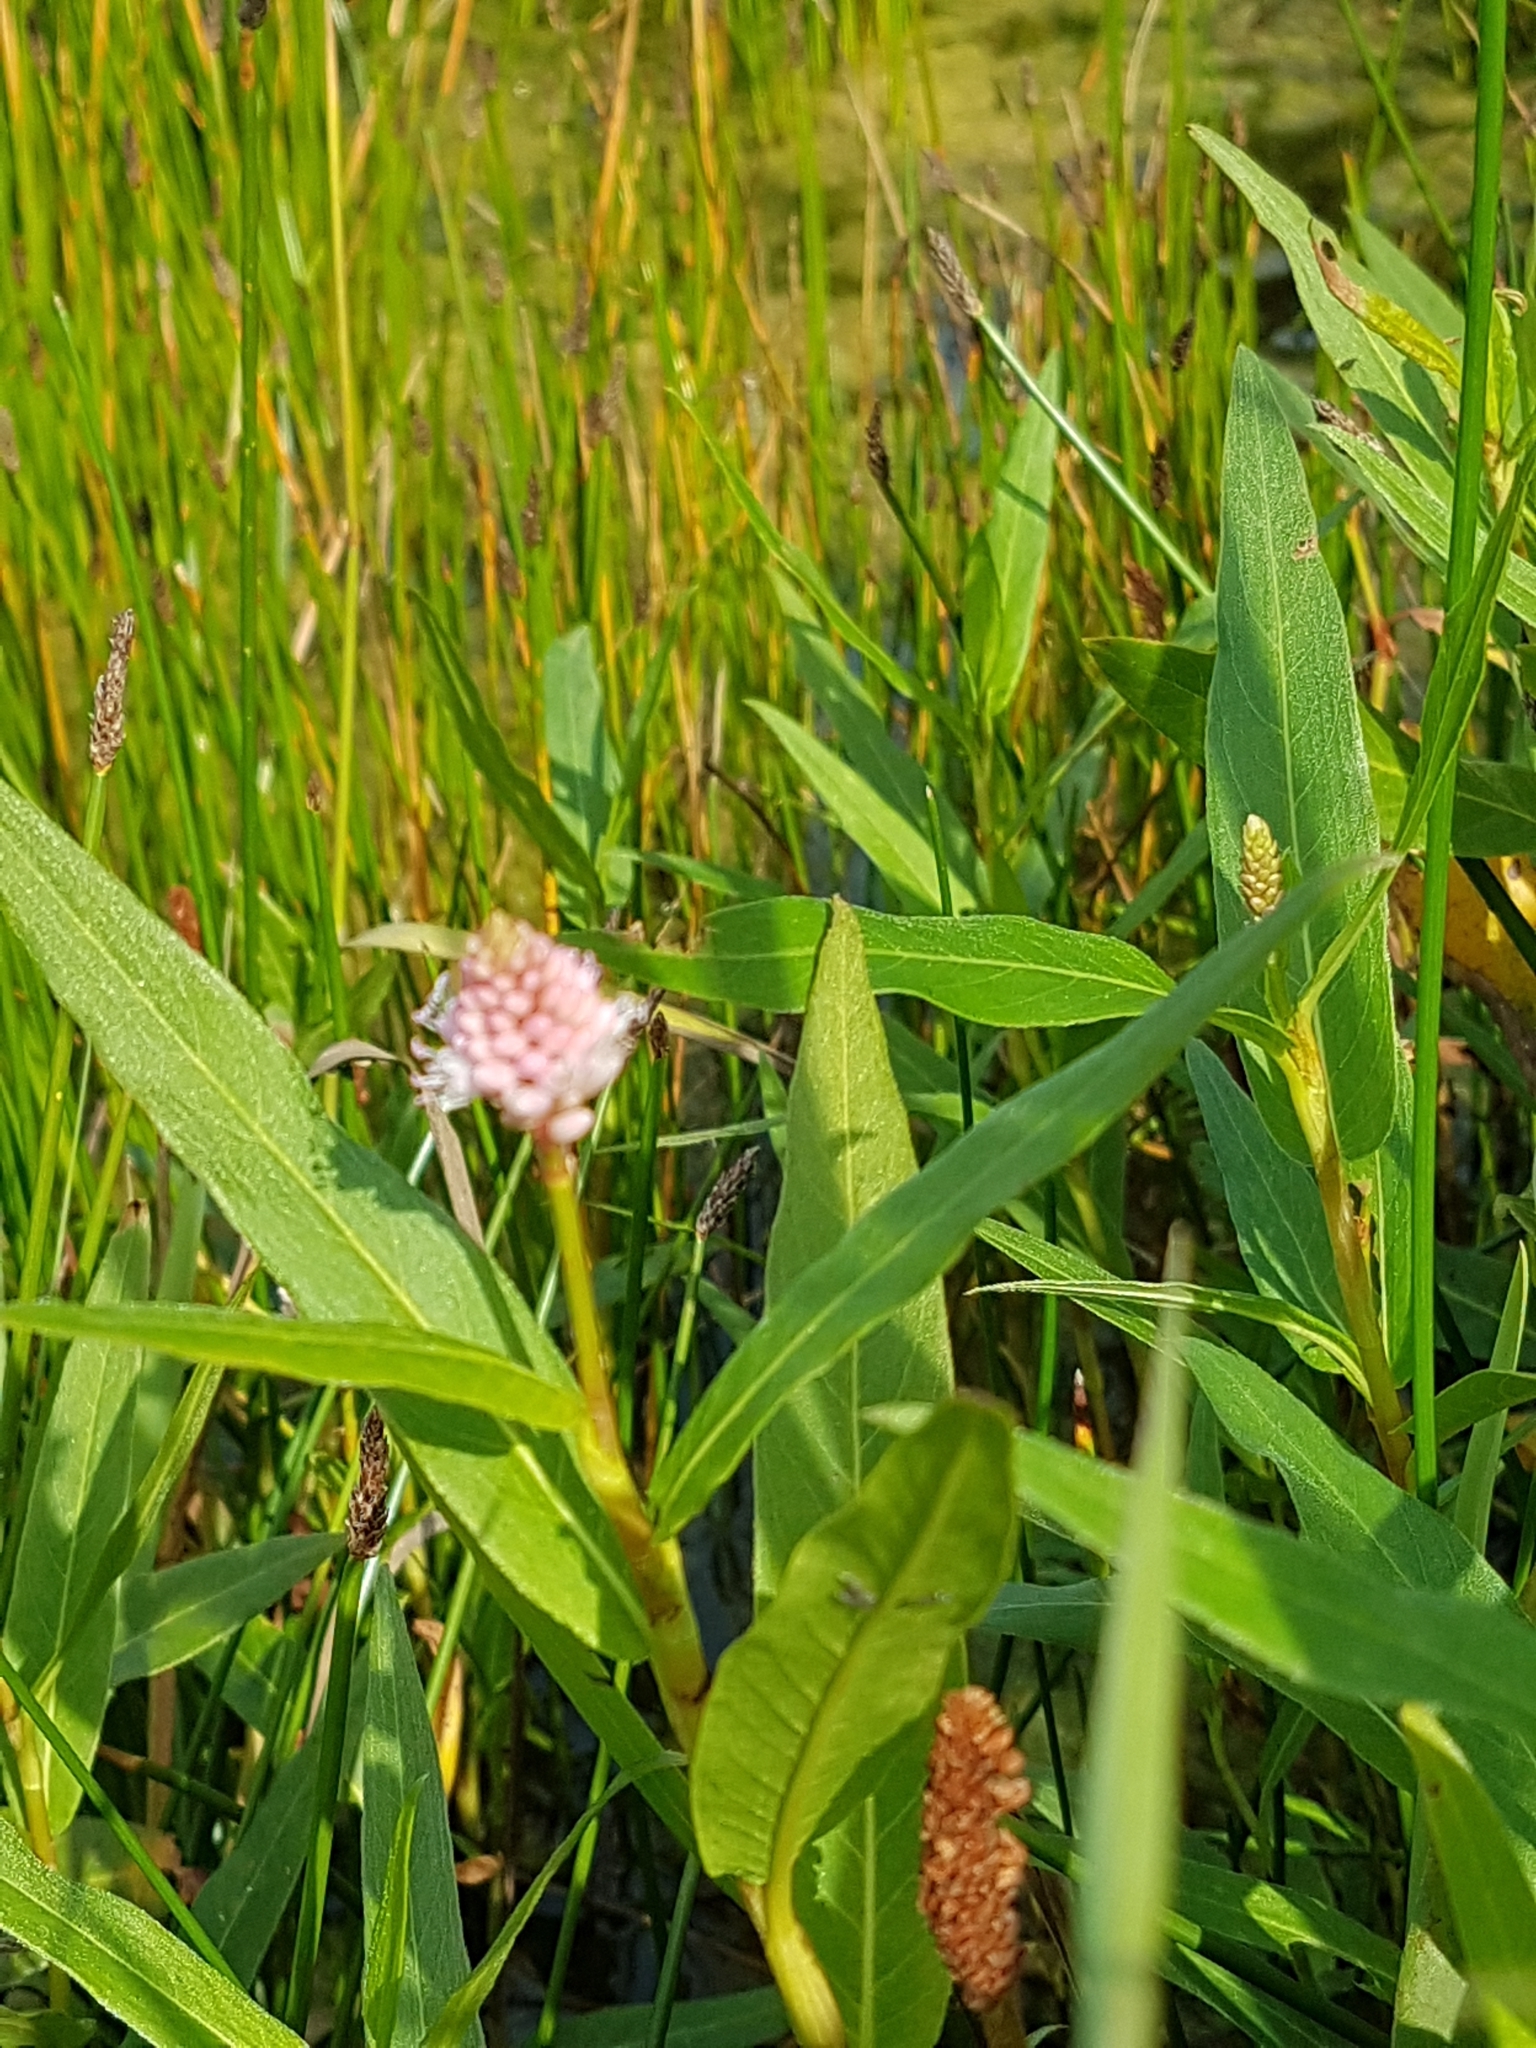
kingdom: Plantae
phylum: Tracheophyta
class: Magnoliopsida
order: Caryophyllales
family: Polygonaceae
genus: Persicaria
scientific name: Persicaria amphibia
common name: Amphibious bistort
